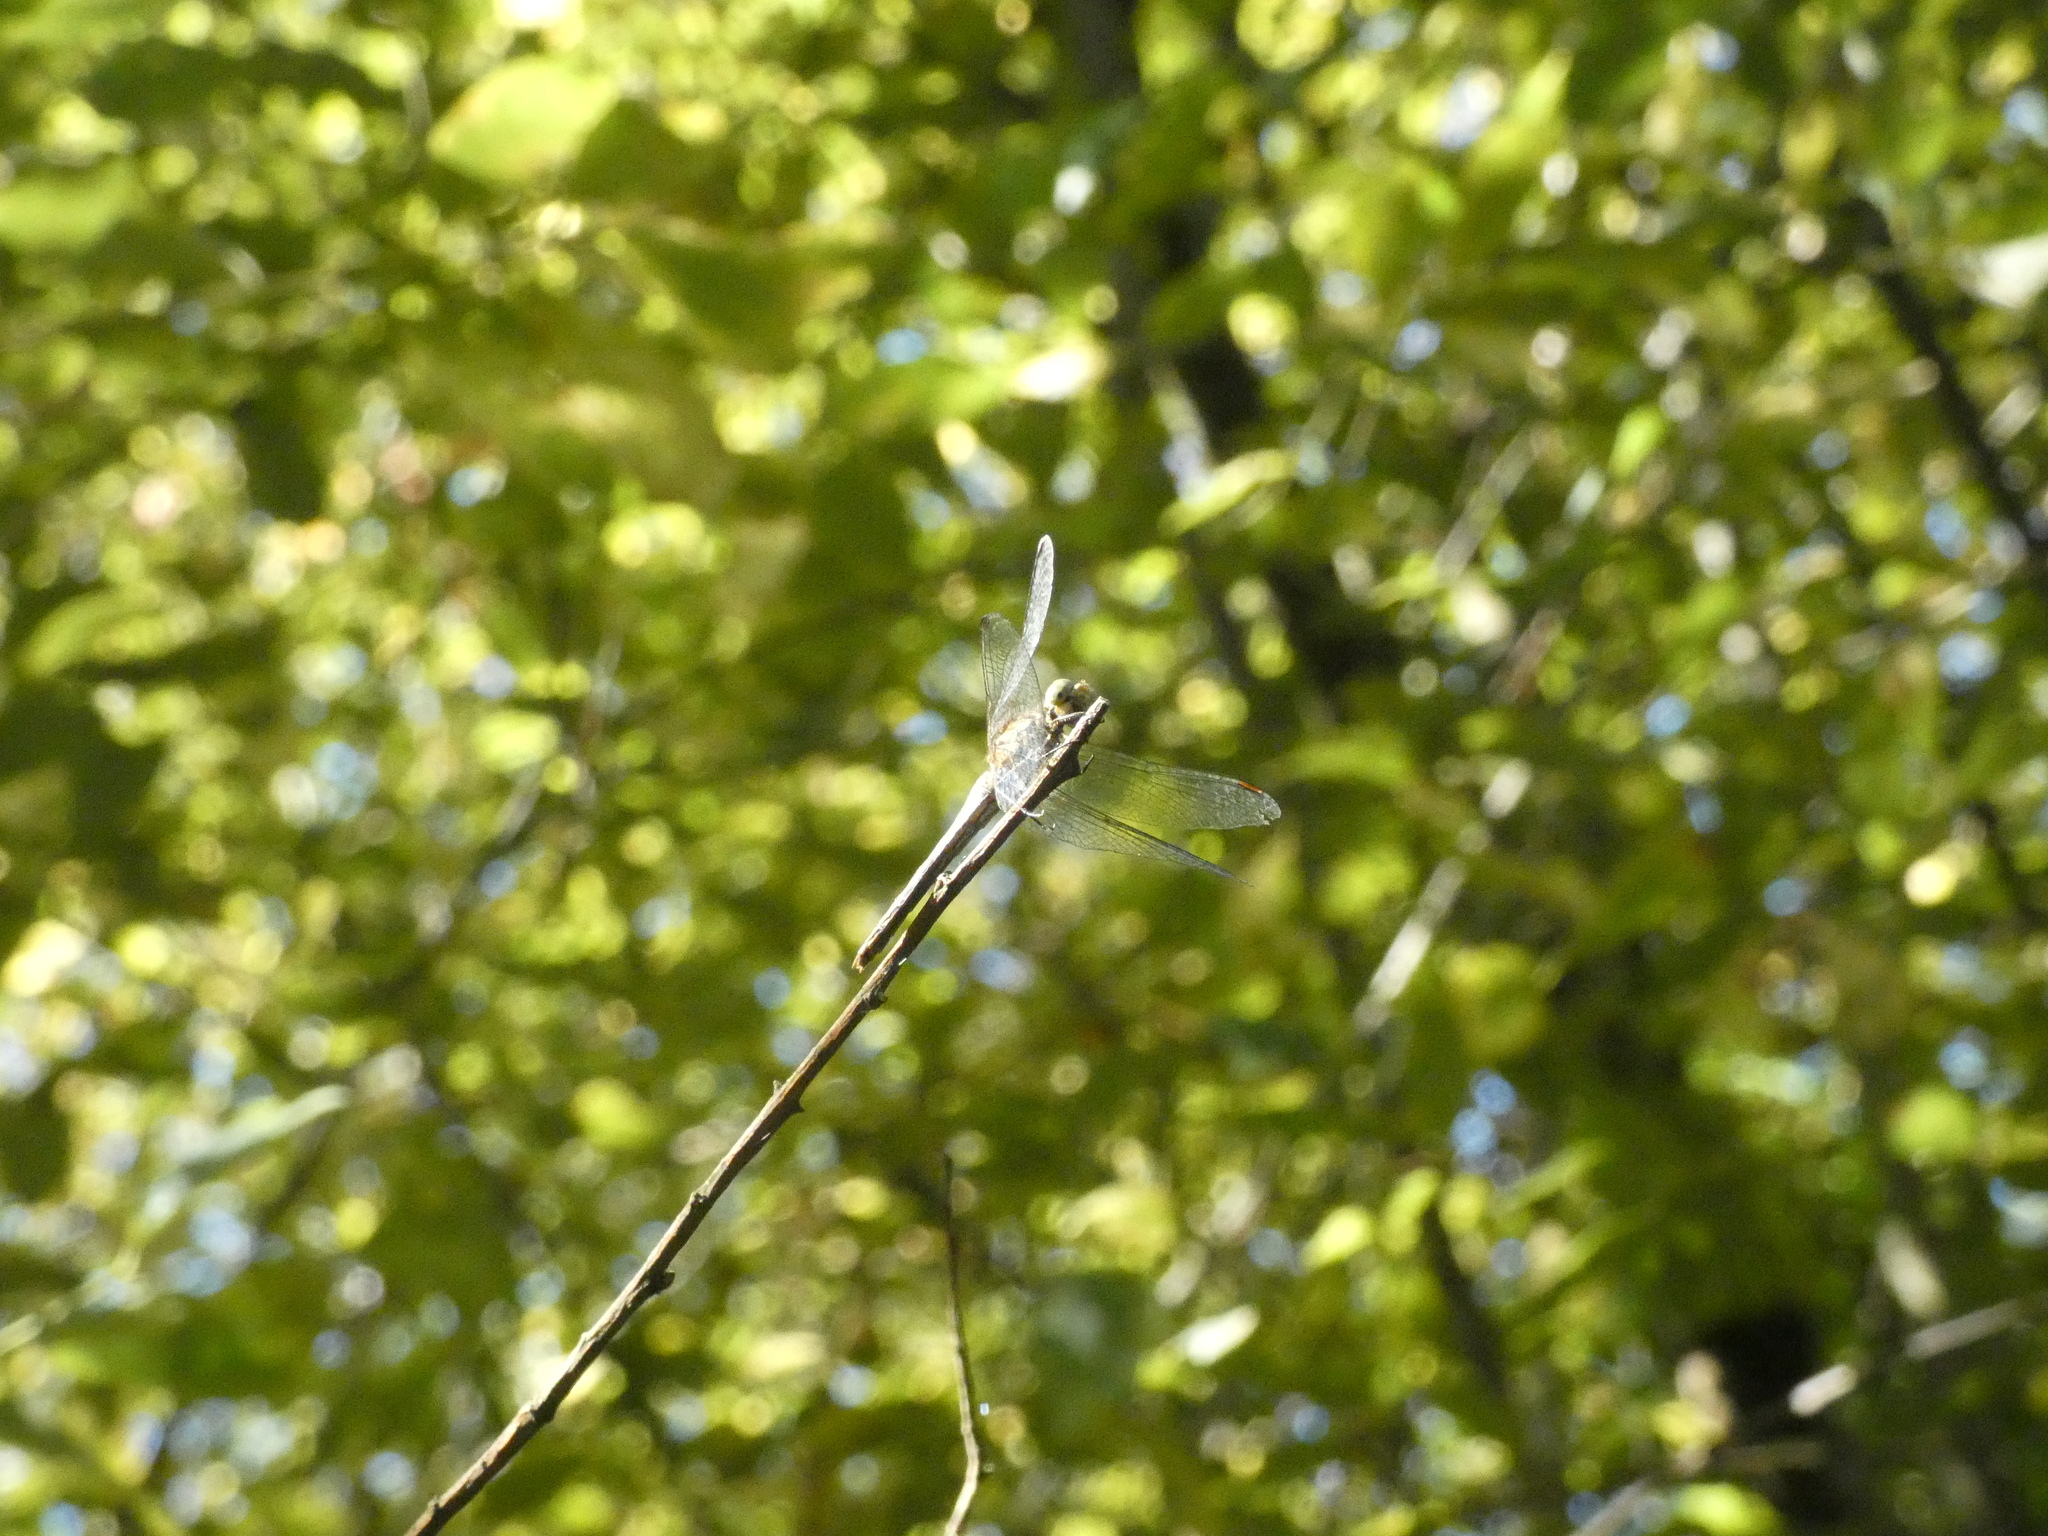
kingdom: Animalia
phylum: Arthropoda
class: Insecta
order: Odonata
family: Libellulidae
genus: Sympetrum
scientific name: Sympetrum sanguineum
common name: Ruddy darter
